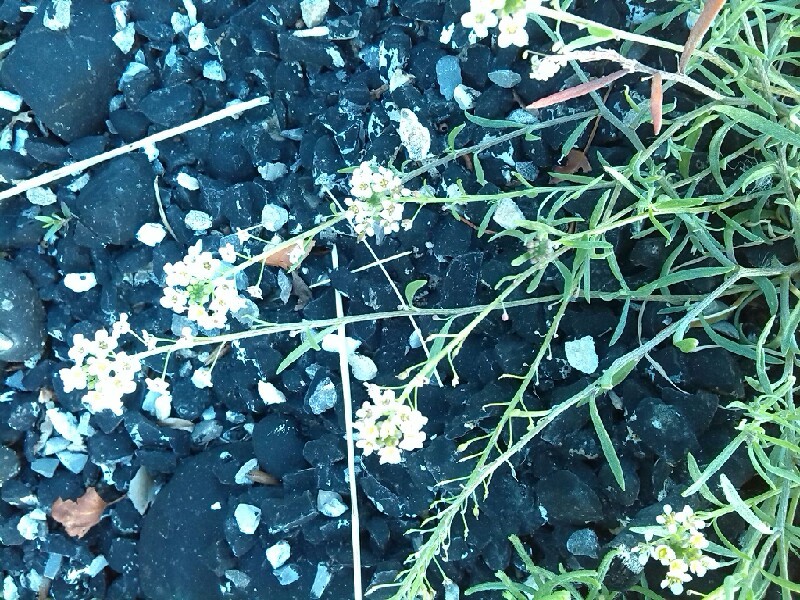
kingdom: Plantae
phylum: Tracheophyta
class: Magnoliopsida
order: Brassicales
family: Brassicaceae
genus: Lobularia
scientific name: Lobularia maritima
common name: Sweet alison
